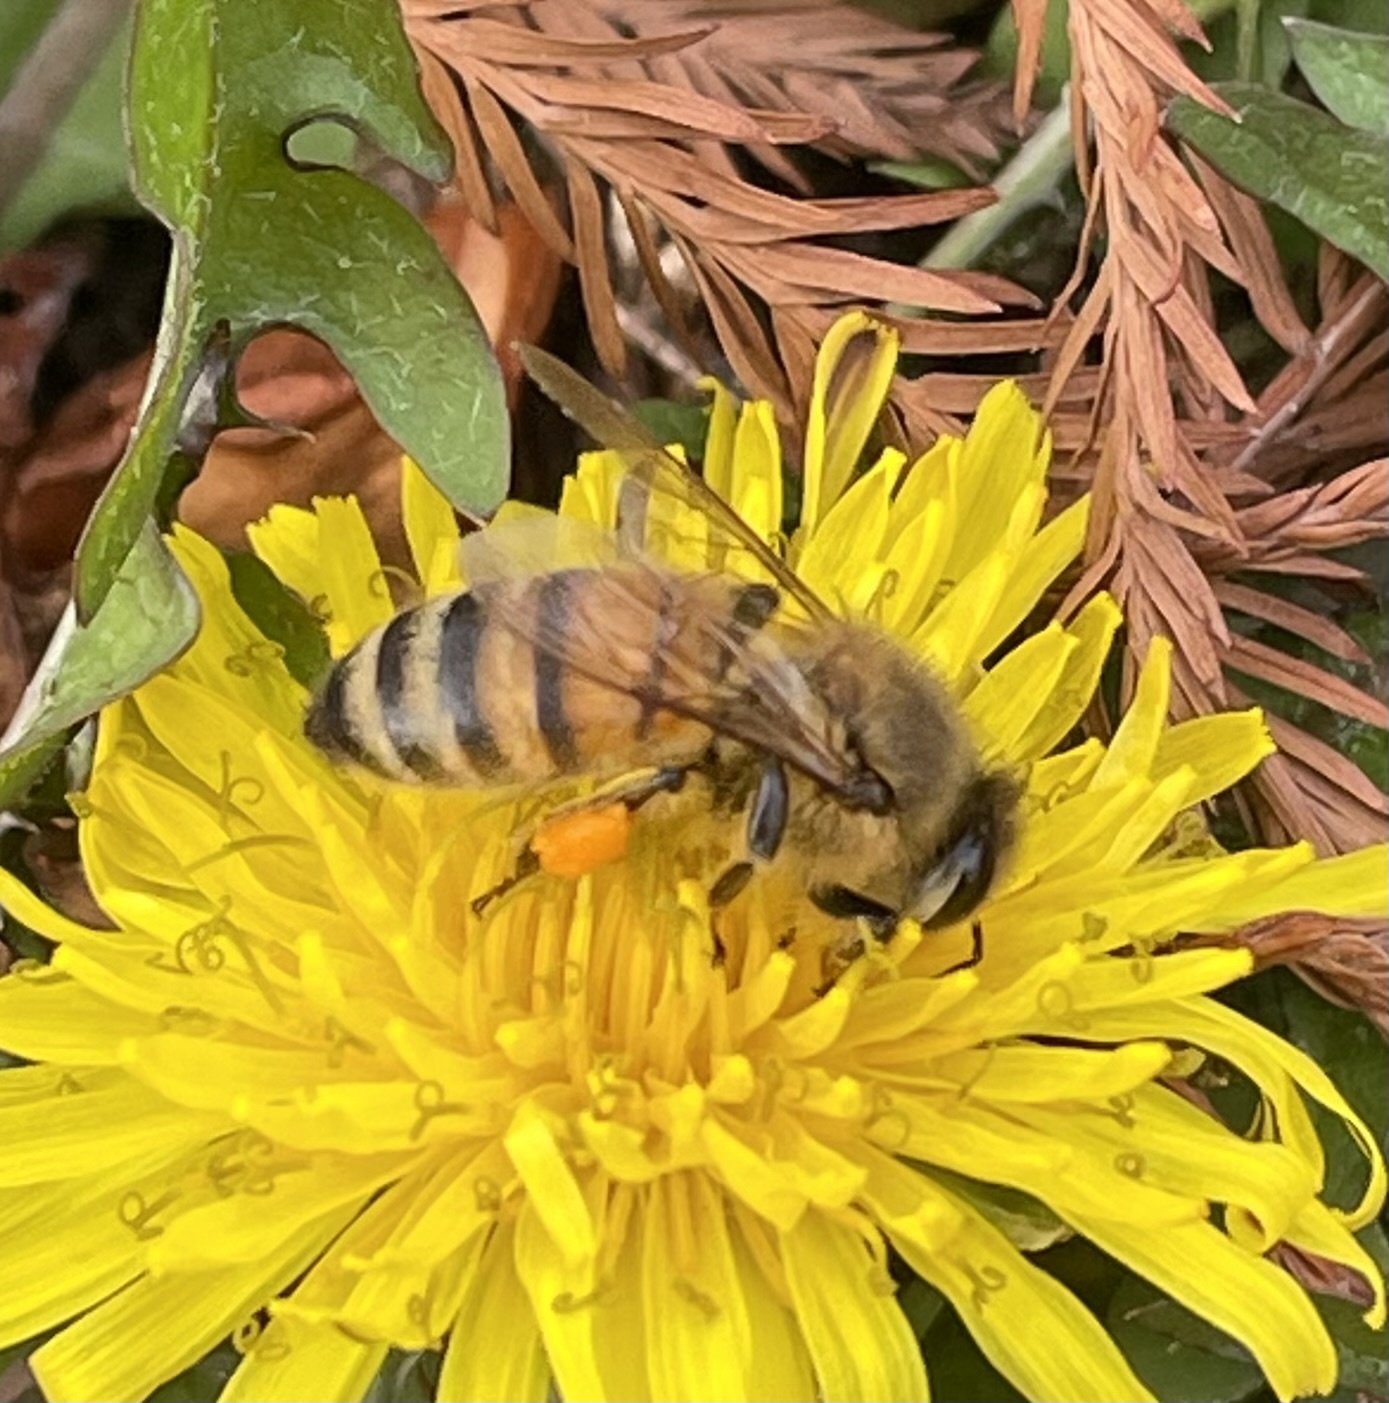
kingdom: Animalia
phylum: Arthropoda
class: Insecta
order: Hymenoptera
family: Apidae
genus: Apis
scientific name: Apis mellifera
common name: Honey bee
